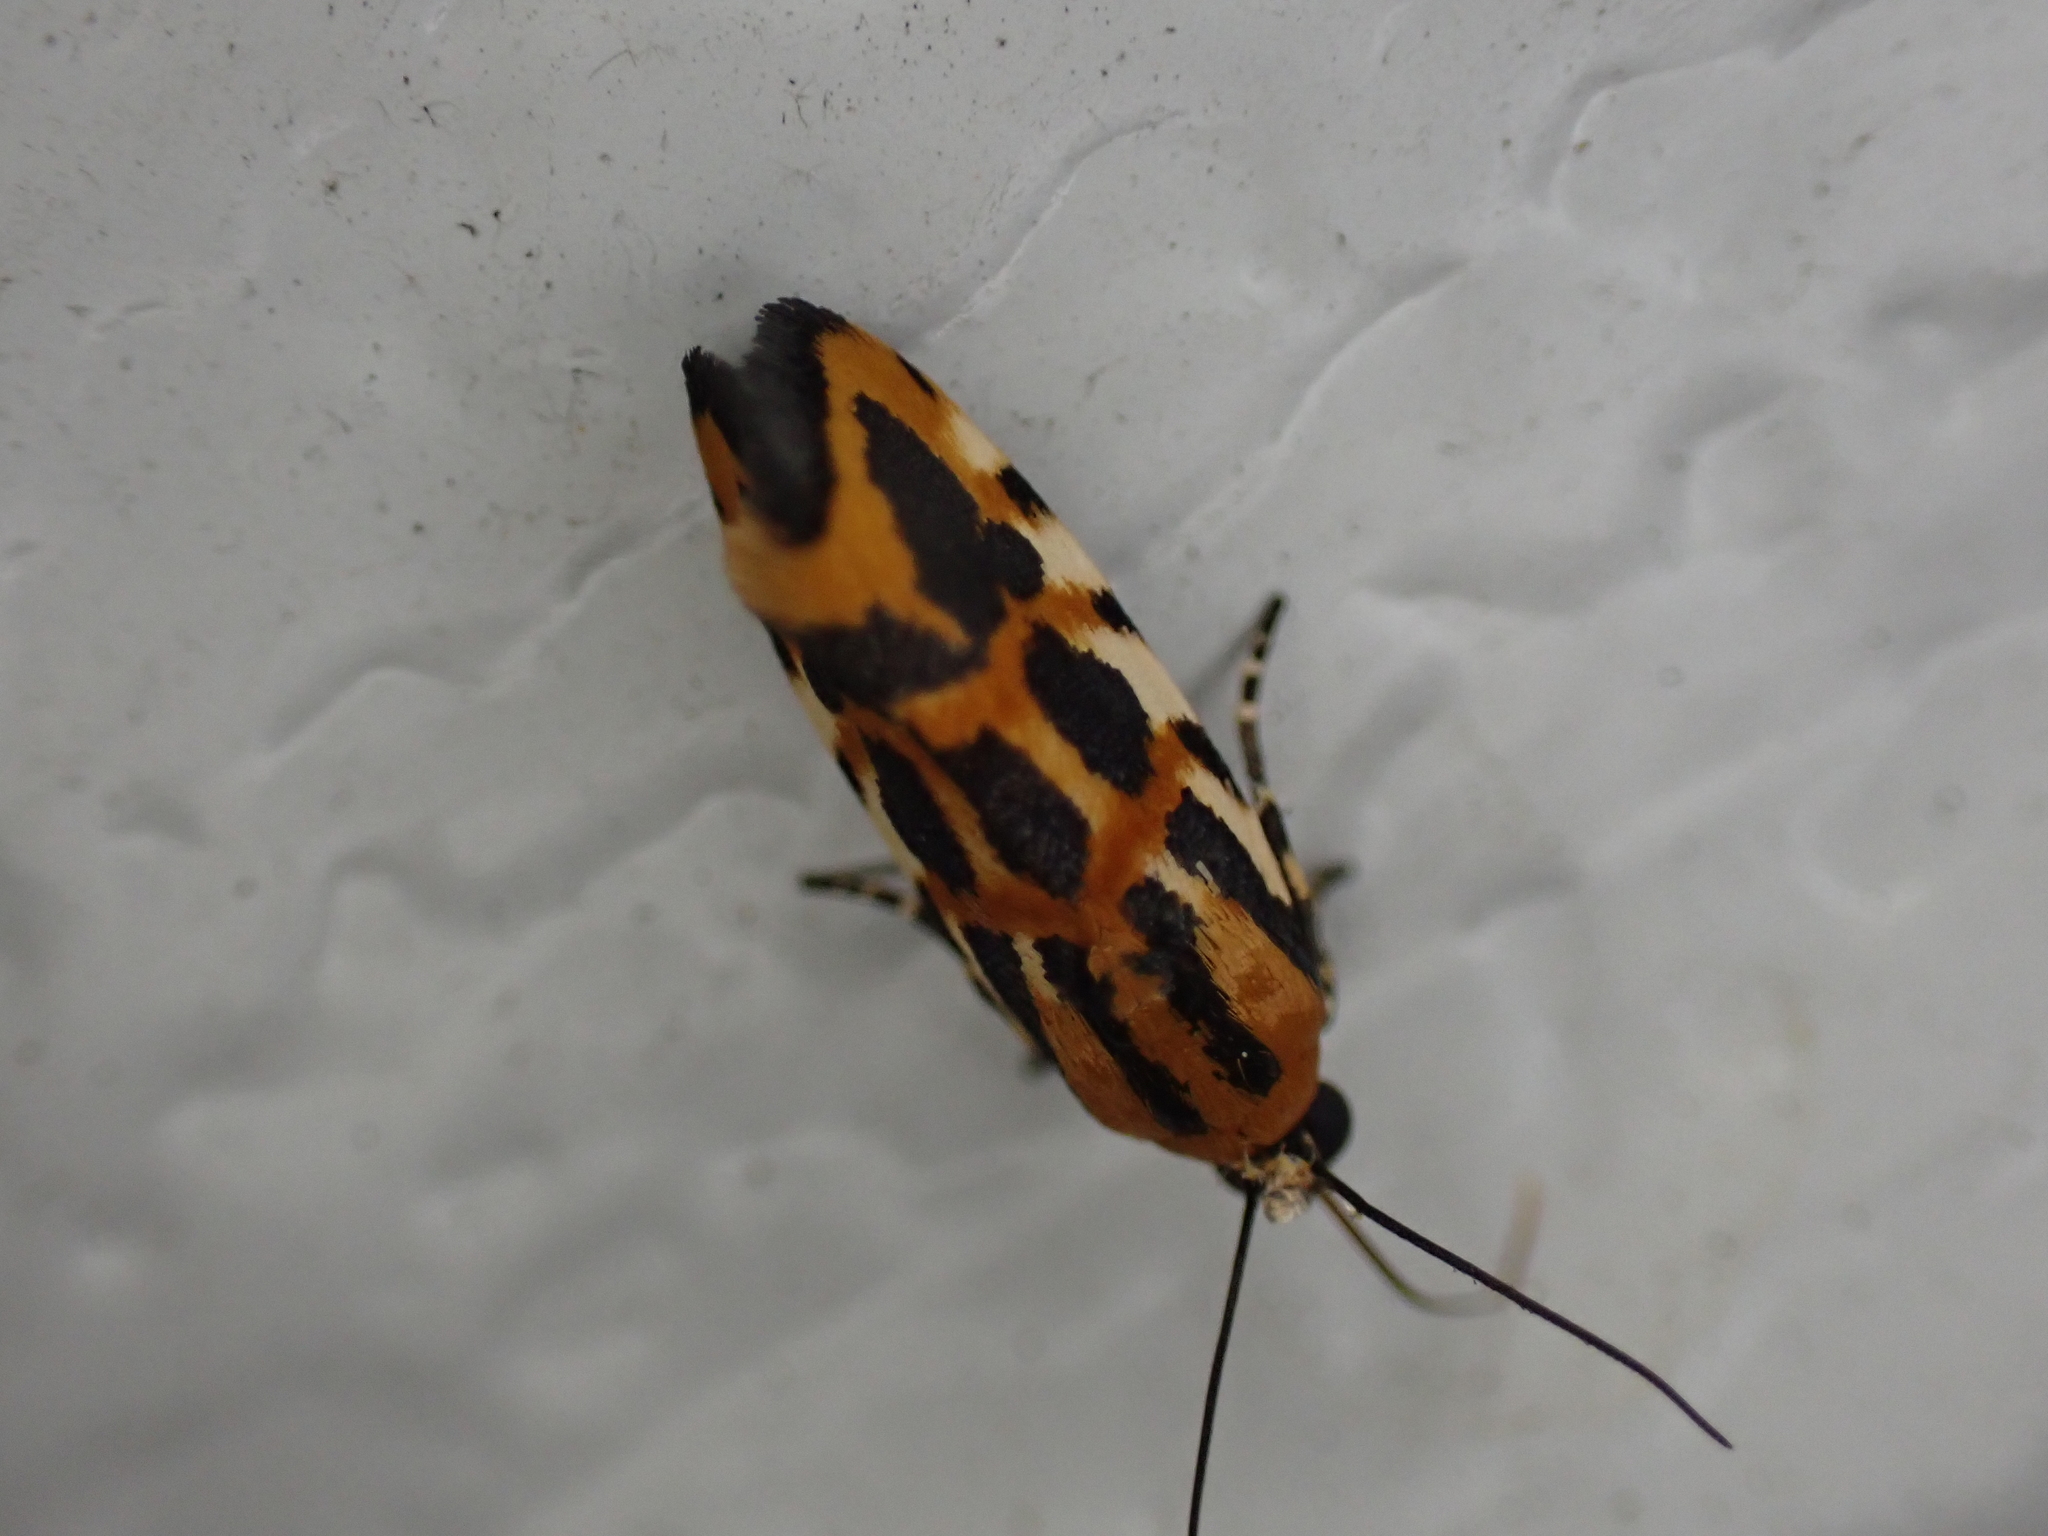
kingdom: Animalia
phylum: Arthropoda
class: Insecta
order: Lepidoptera
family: Noctuidae
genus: Acontia
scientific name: Acontia leo
